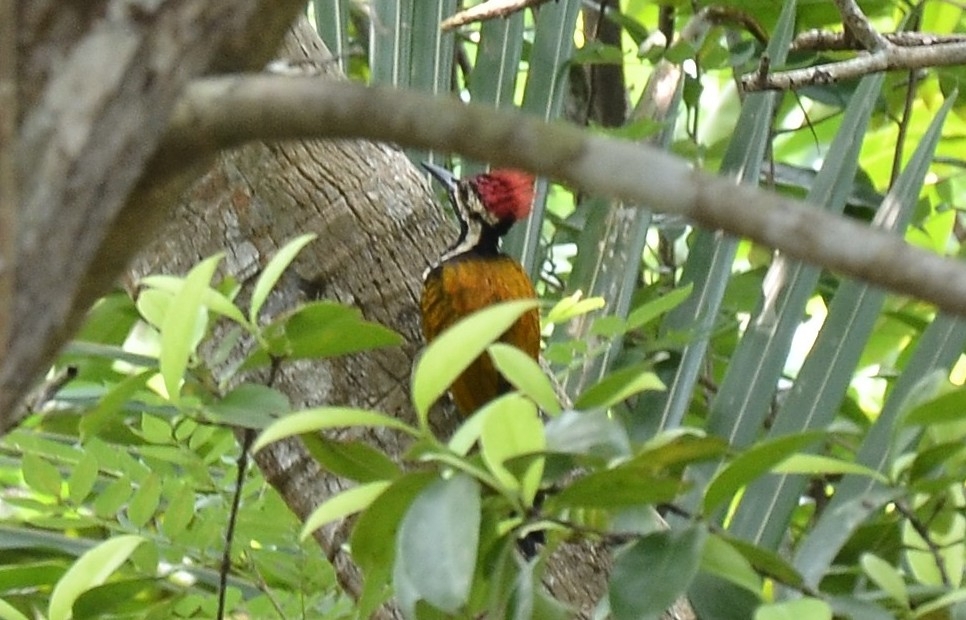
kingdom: Animalia
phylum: Chordata
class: Aves
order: Piciformes
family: Picidae
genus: Dinopium
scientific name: Dinopium benghalense
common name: Black-rumped flameback
